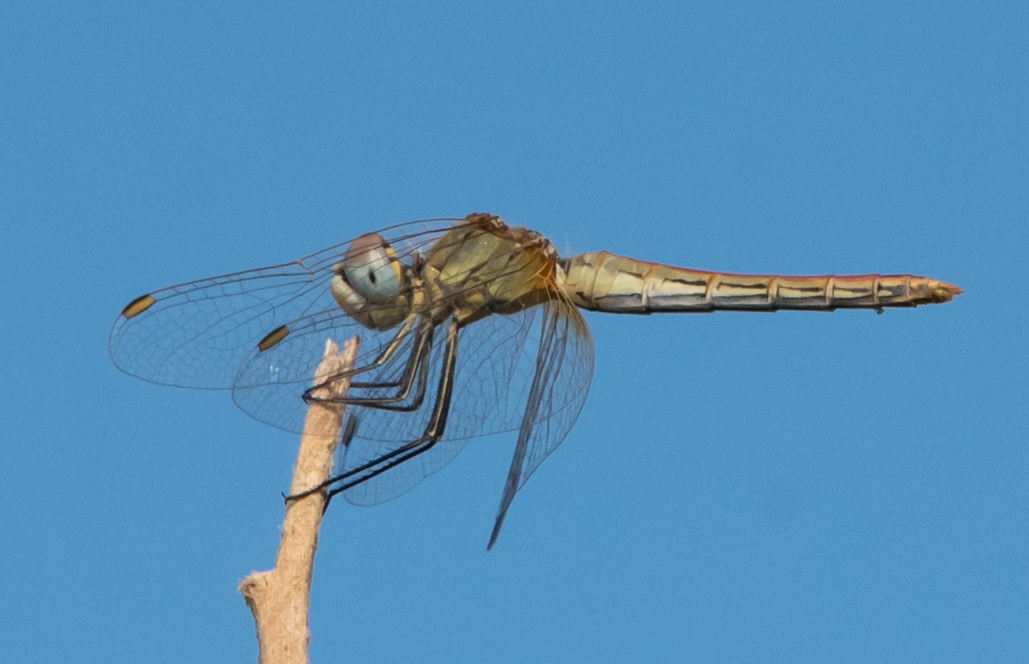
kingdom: Animalia
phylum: Arthropoda
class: Insecta
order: Odonata
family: Libellulidae
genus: Sympetrum
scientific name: Sympetrum fonscolombii
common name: Red-veined darter
